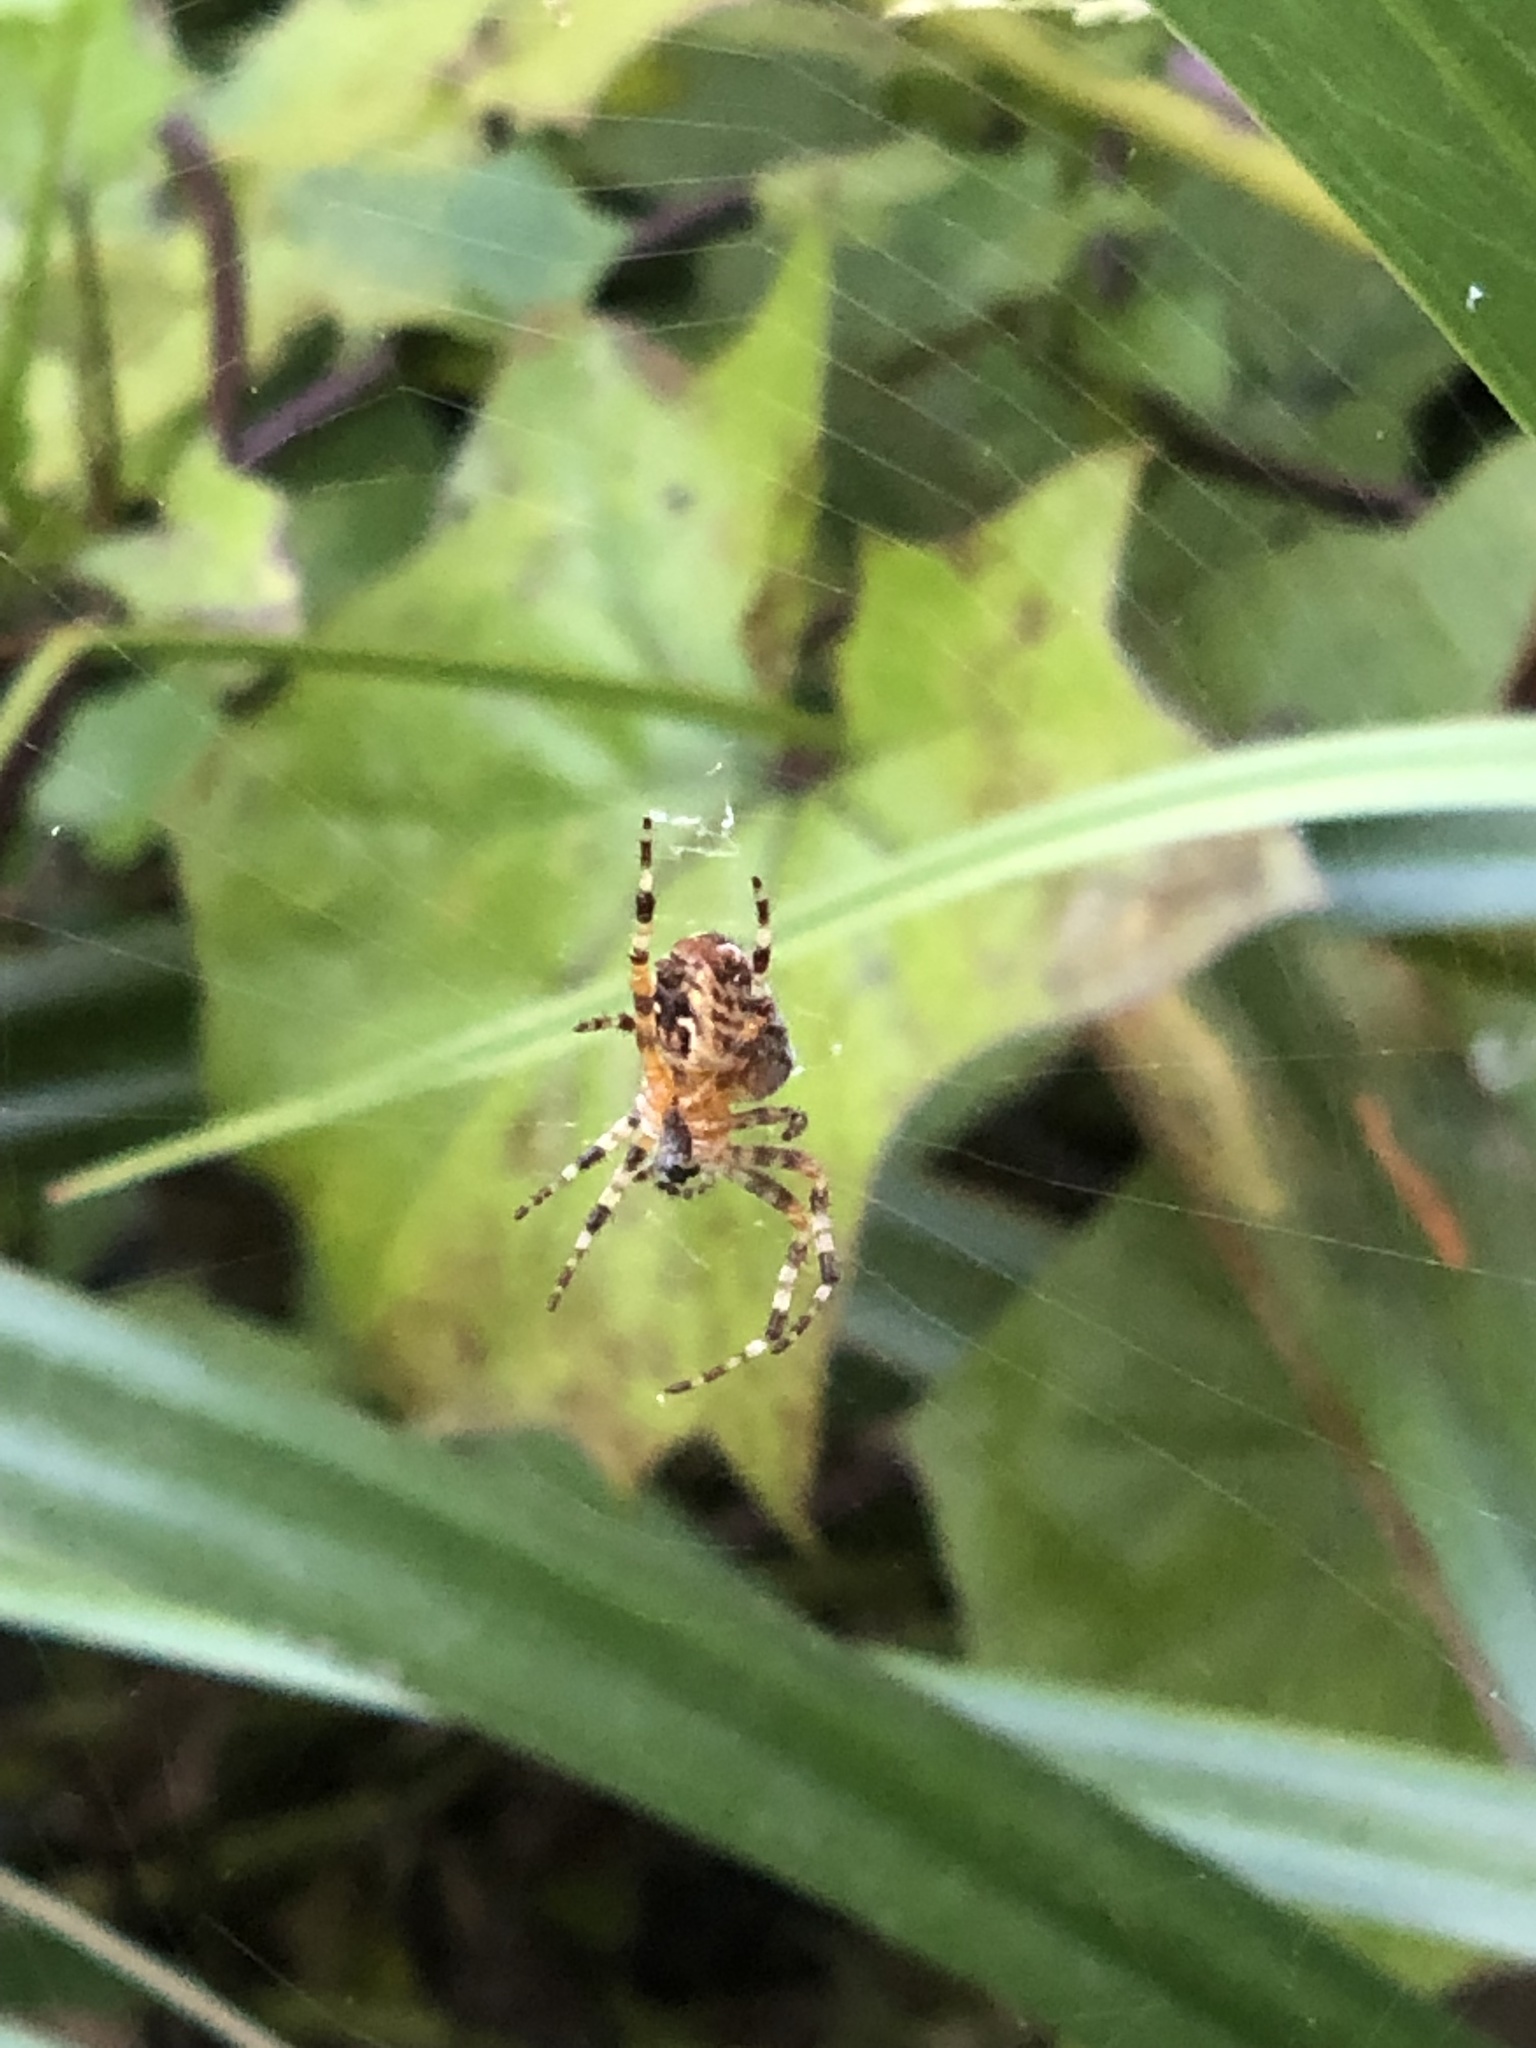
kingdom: Animalia
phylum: Arthropoda
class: Arachnida
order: Araneae
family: Araneidae
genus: Araneus
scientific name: Araneus diadematus
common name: Cross orbweaver
